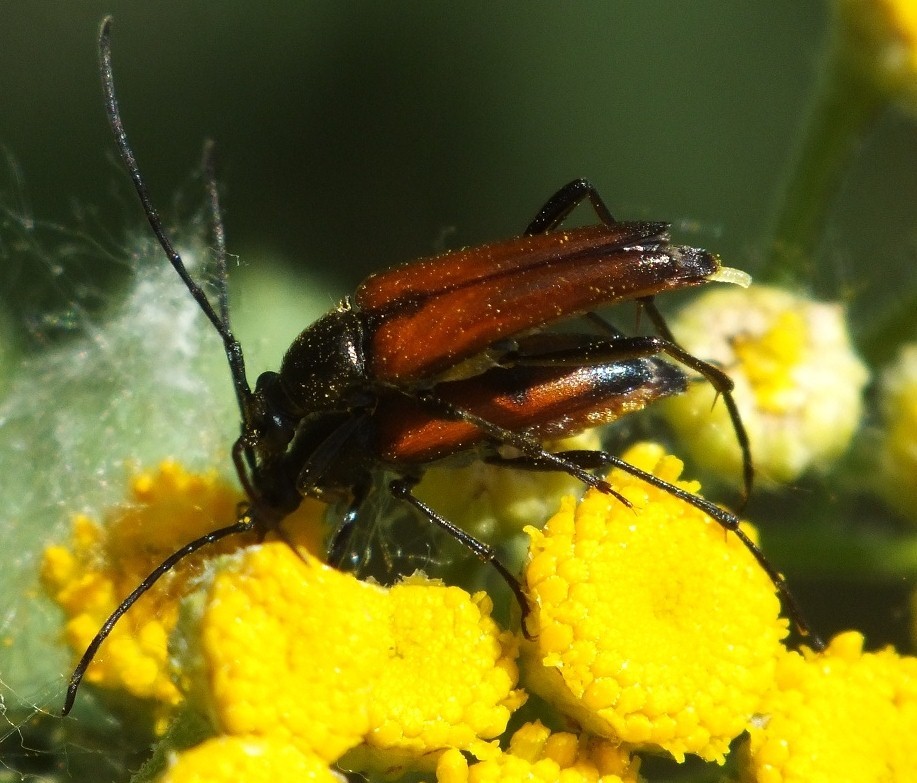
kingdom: Animalia
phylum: Arthropoda
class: Insecta
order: Coleoptera
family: Cerambycidae
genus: Stenurella
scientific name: Stenurella bifasciata
